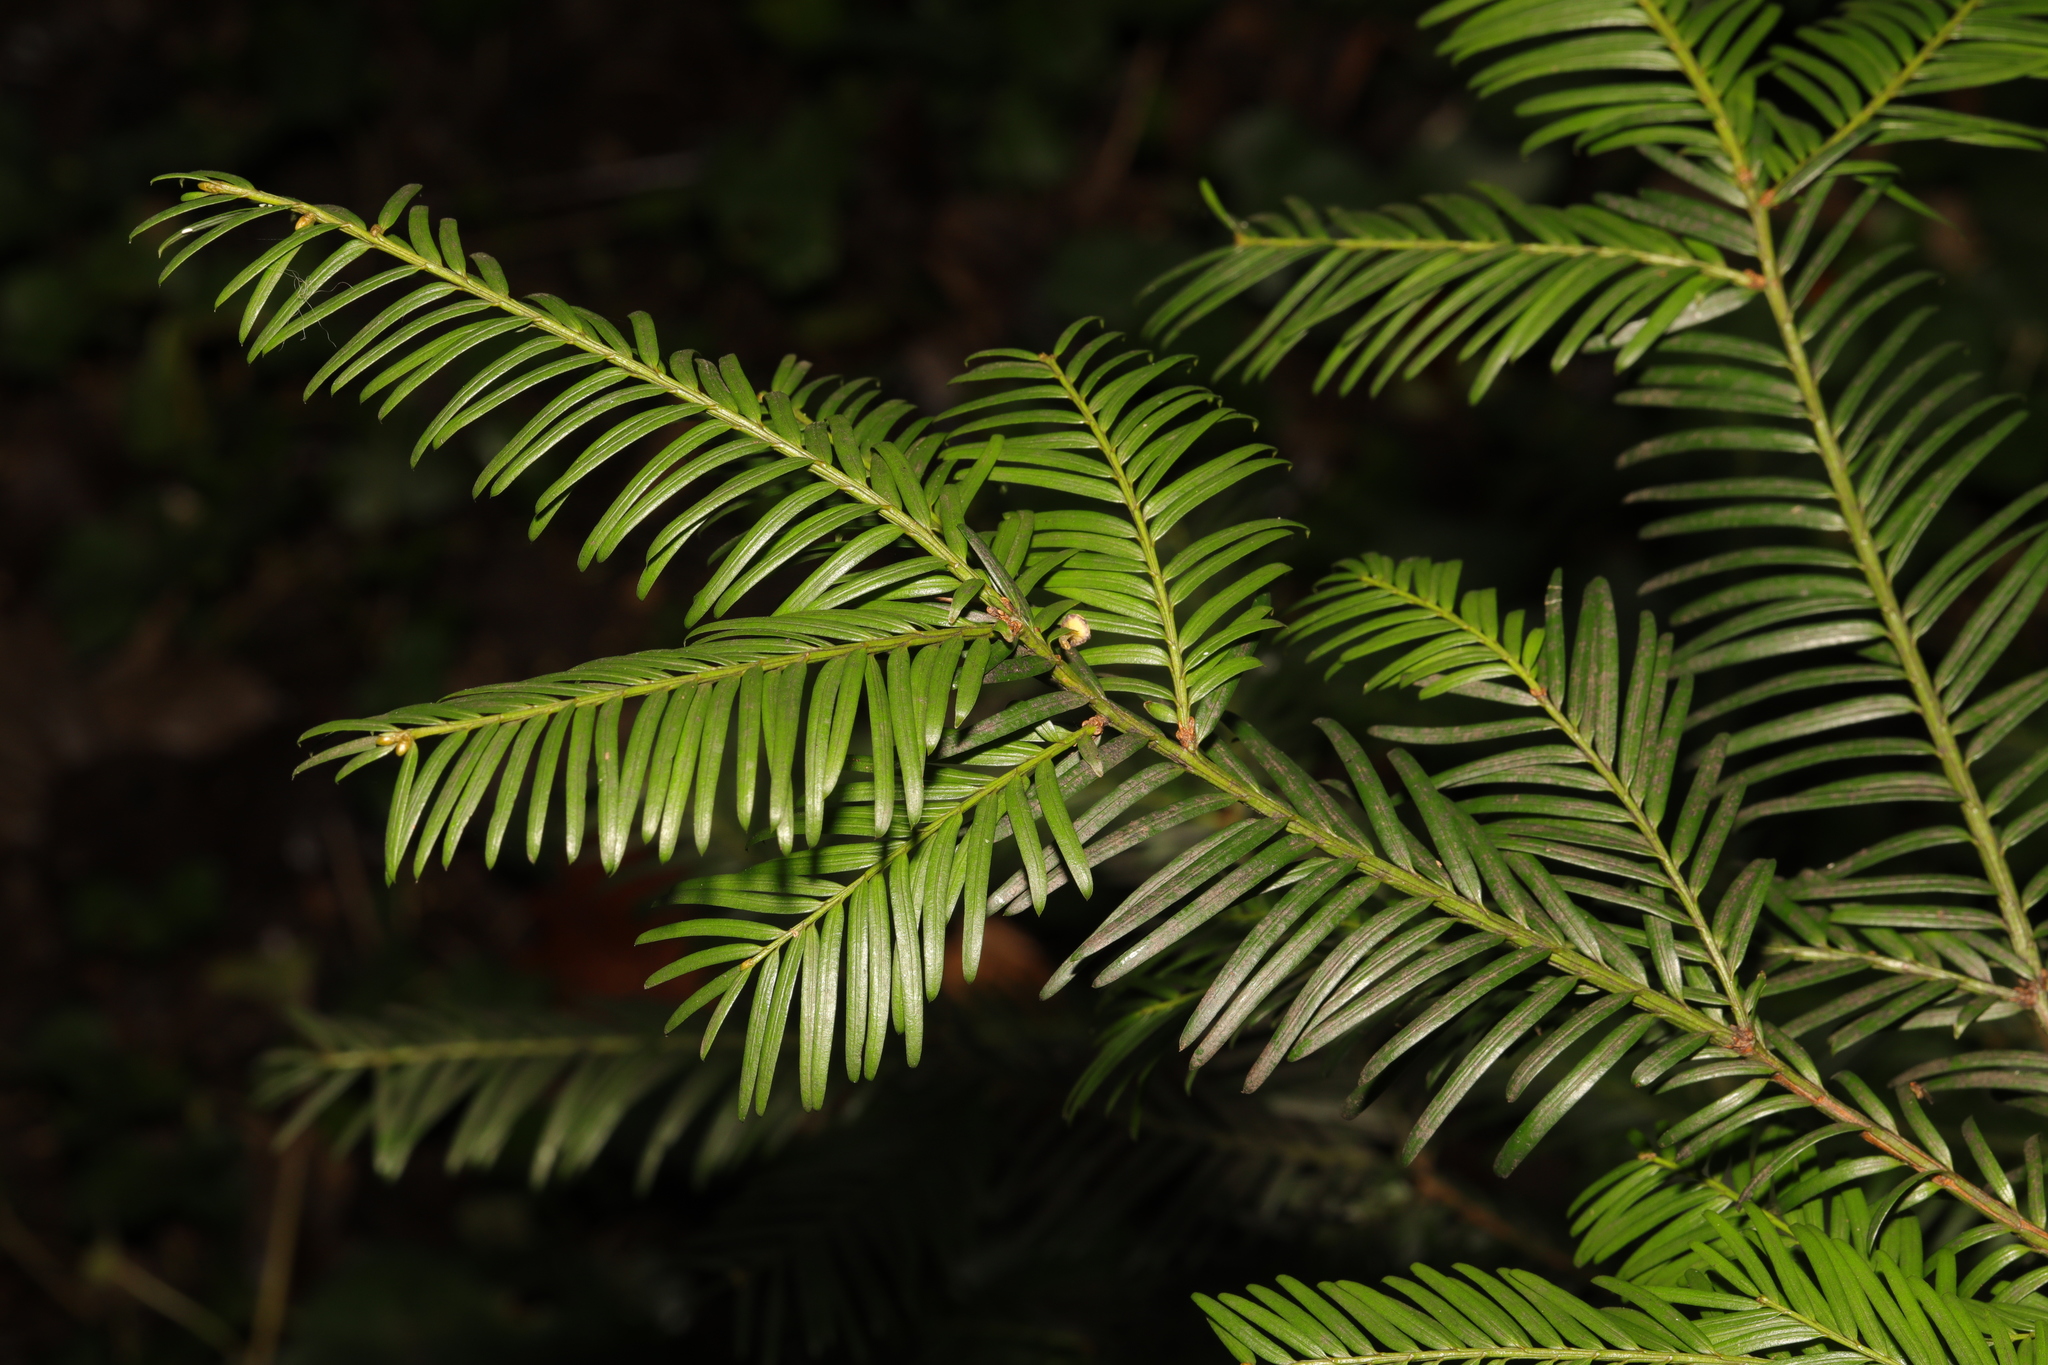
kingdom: Plantae
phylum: Tracheophyta
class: Pinopsida
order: Pinales
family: Taxaceae
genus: Taxus
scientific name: Taxus baccata
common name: Yew
